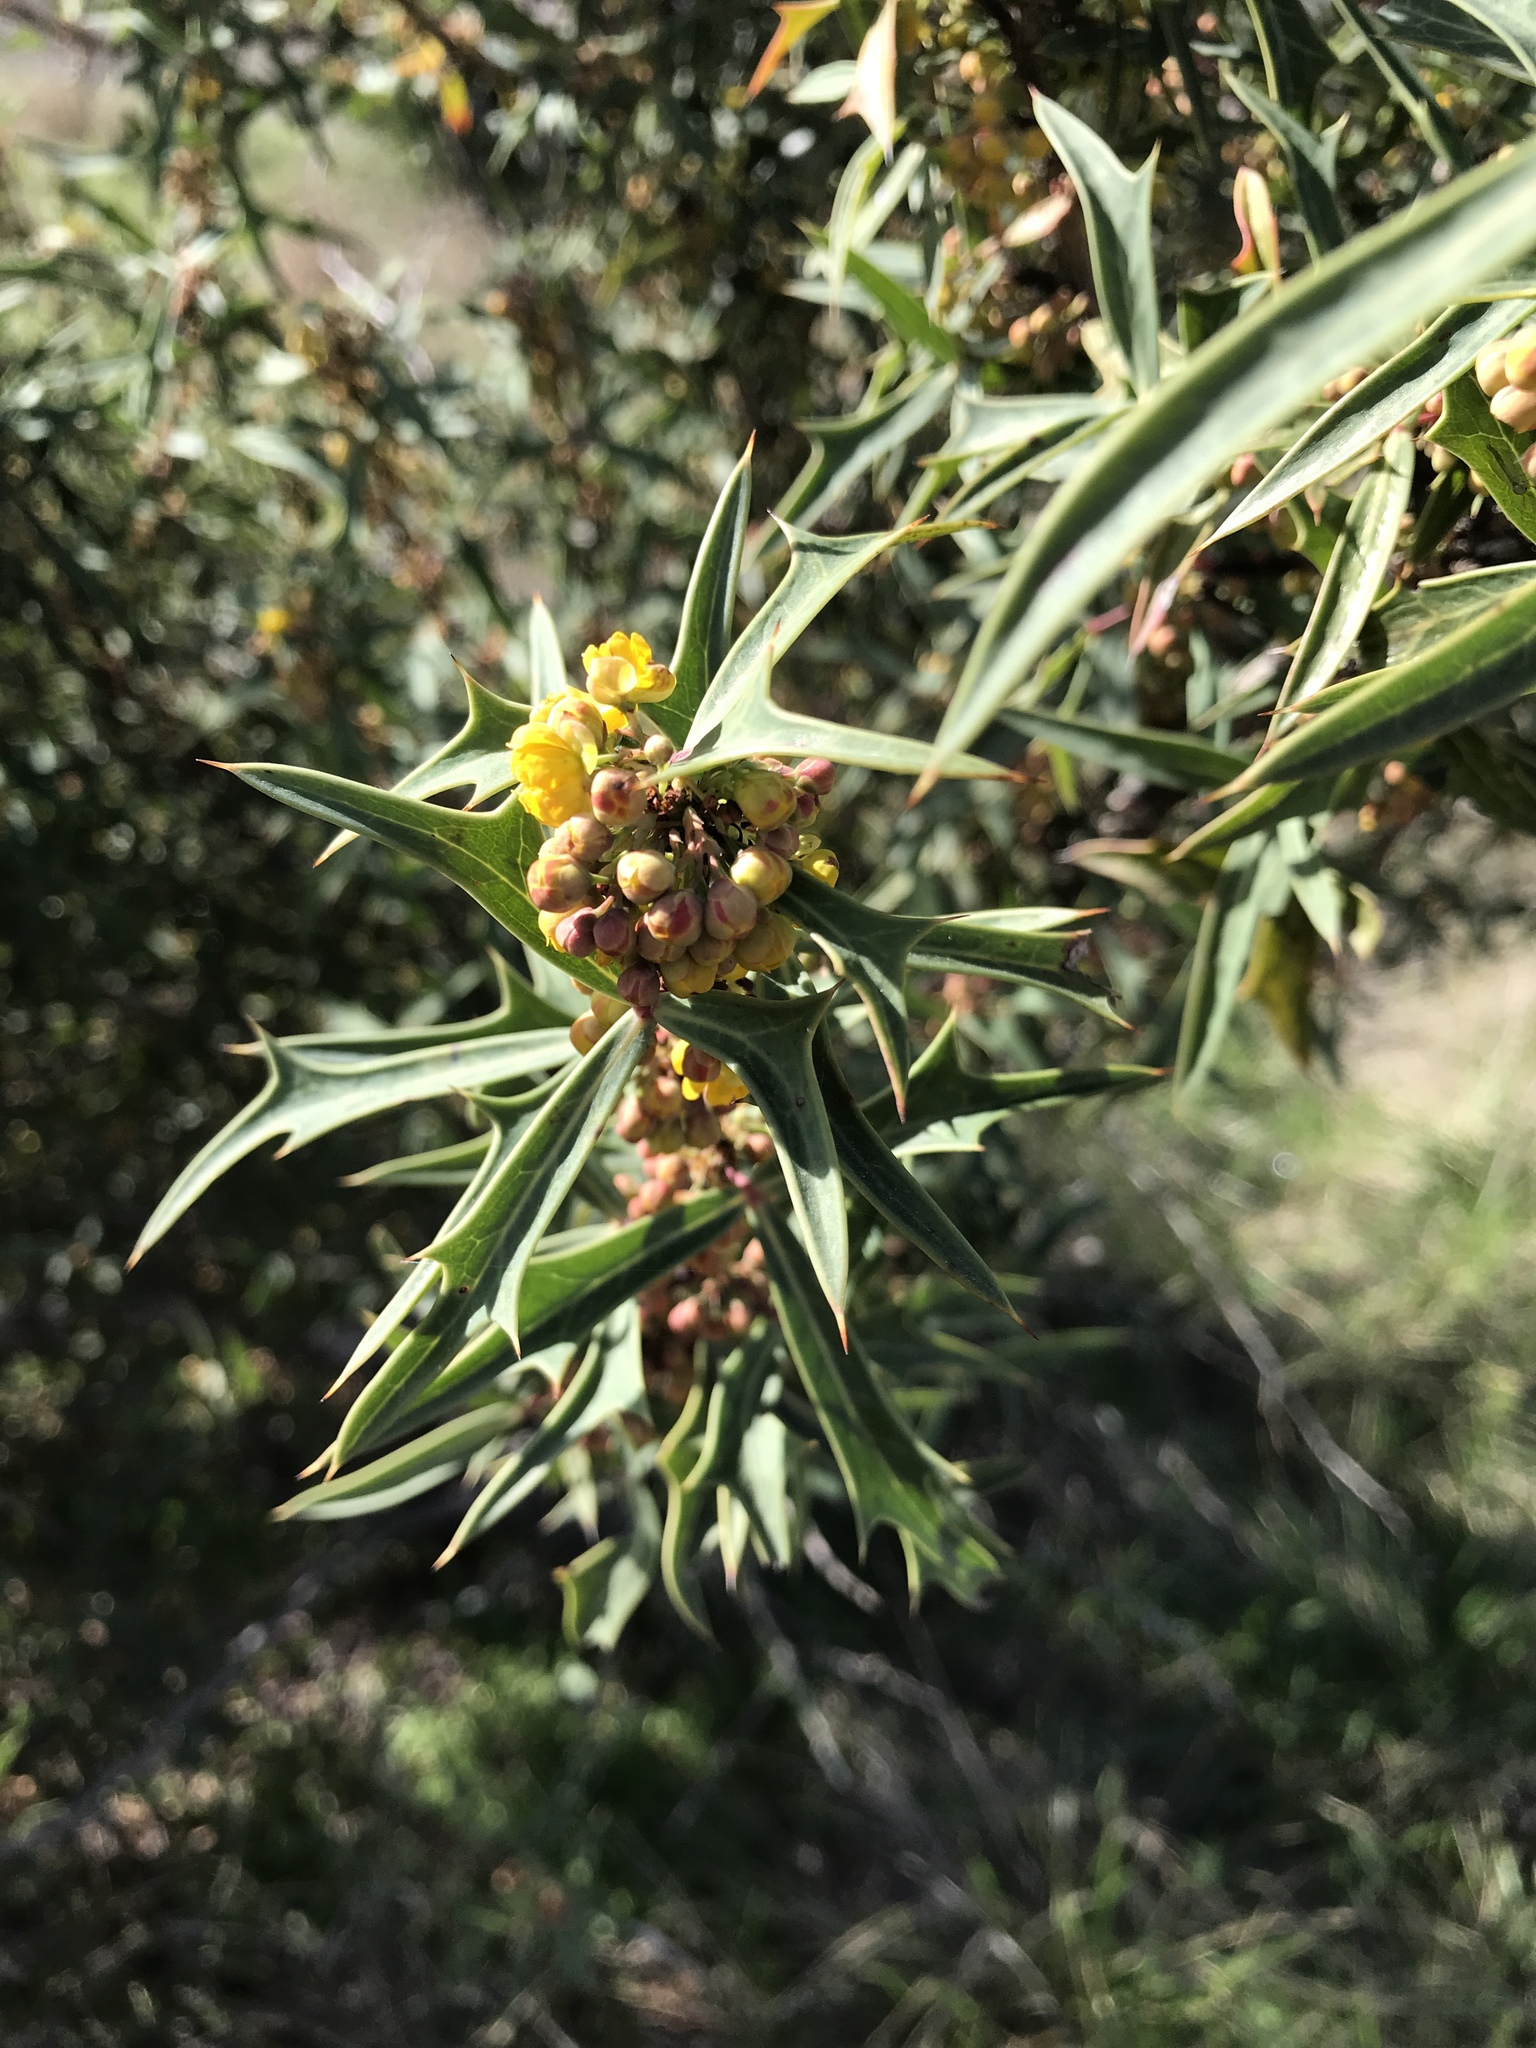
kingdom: Plantae
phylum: Tracheophyta
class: Magnoliopsida
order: Ranunculales
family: Berberidaceae
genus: Alloberberis
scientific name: Alloberberis trifoliolata
